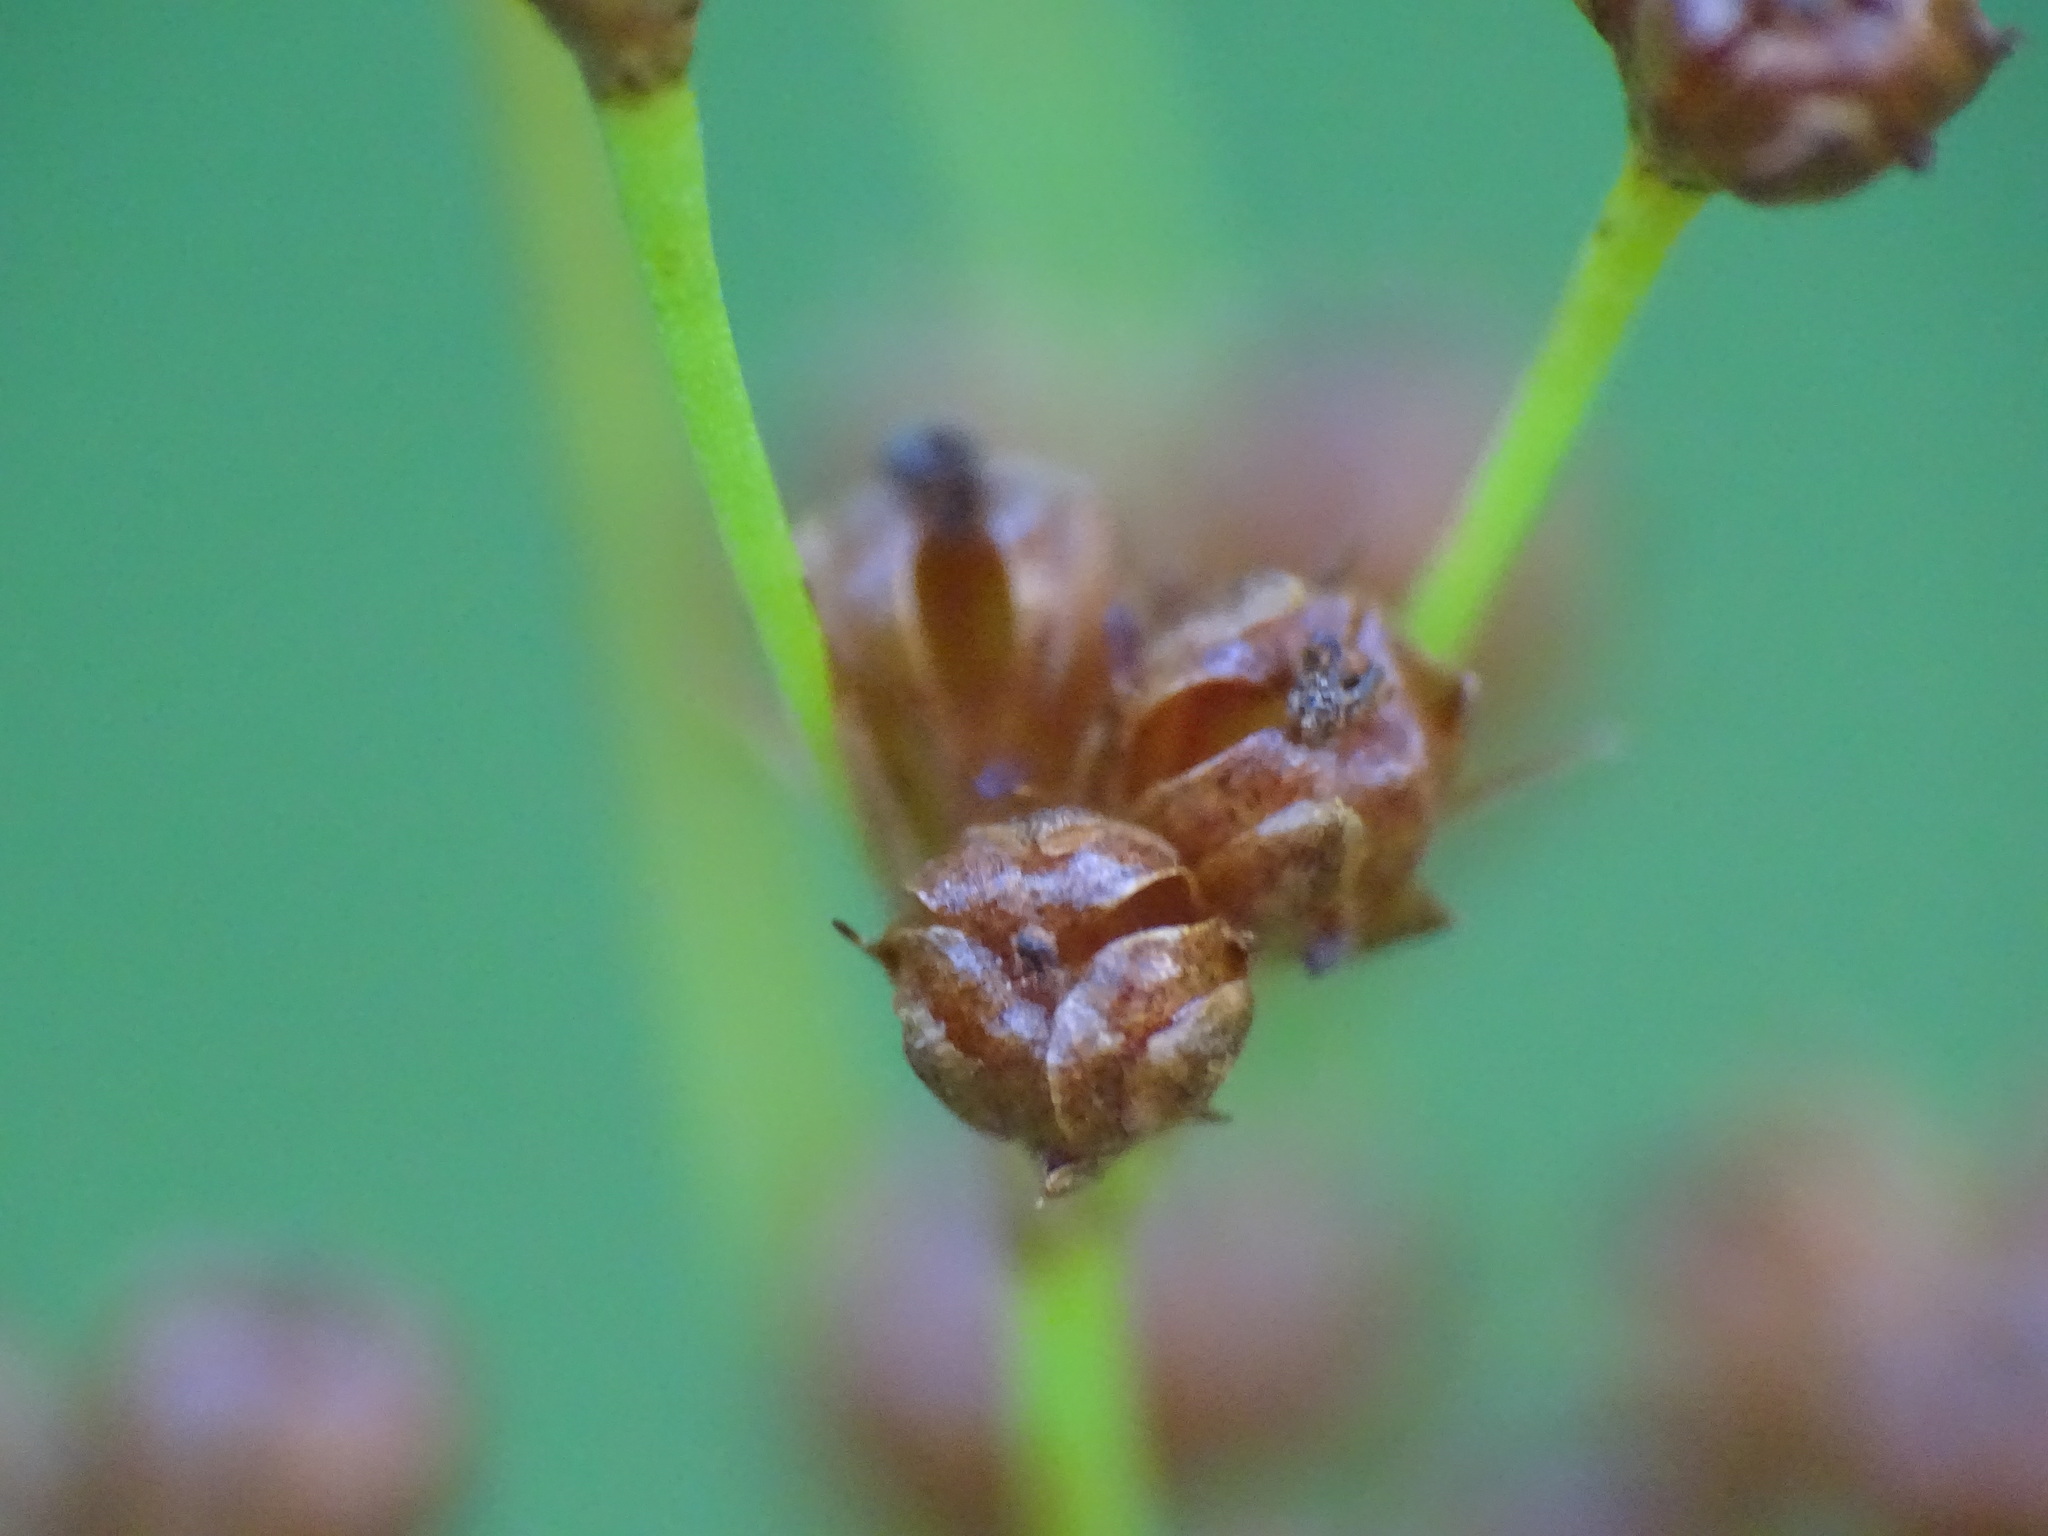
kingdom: Plantae
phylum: Tracheophyta
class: Liliopsida
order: Poales
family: Juncaceae
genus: Juncus
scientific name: Juncus marginatus
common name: Grass-leaf rush
